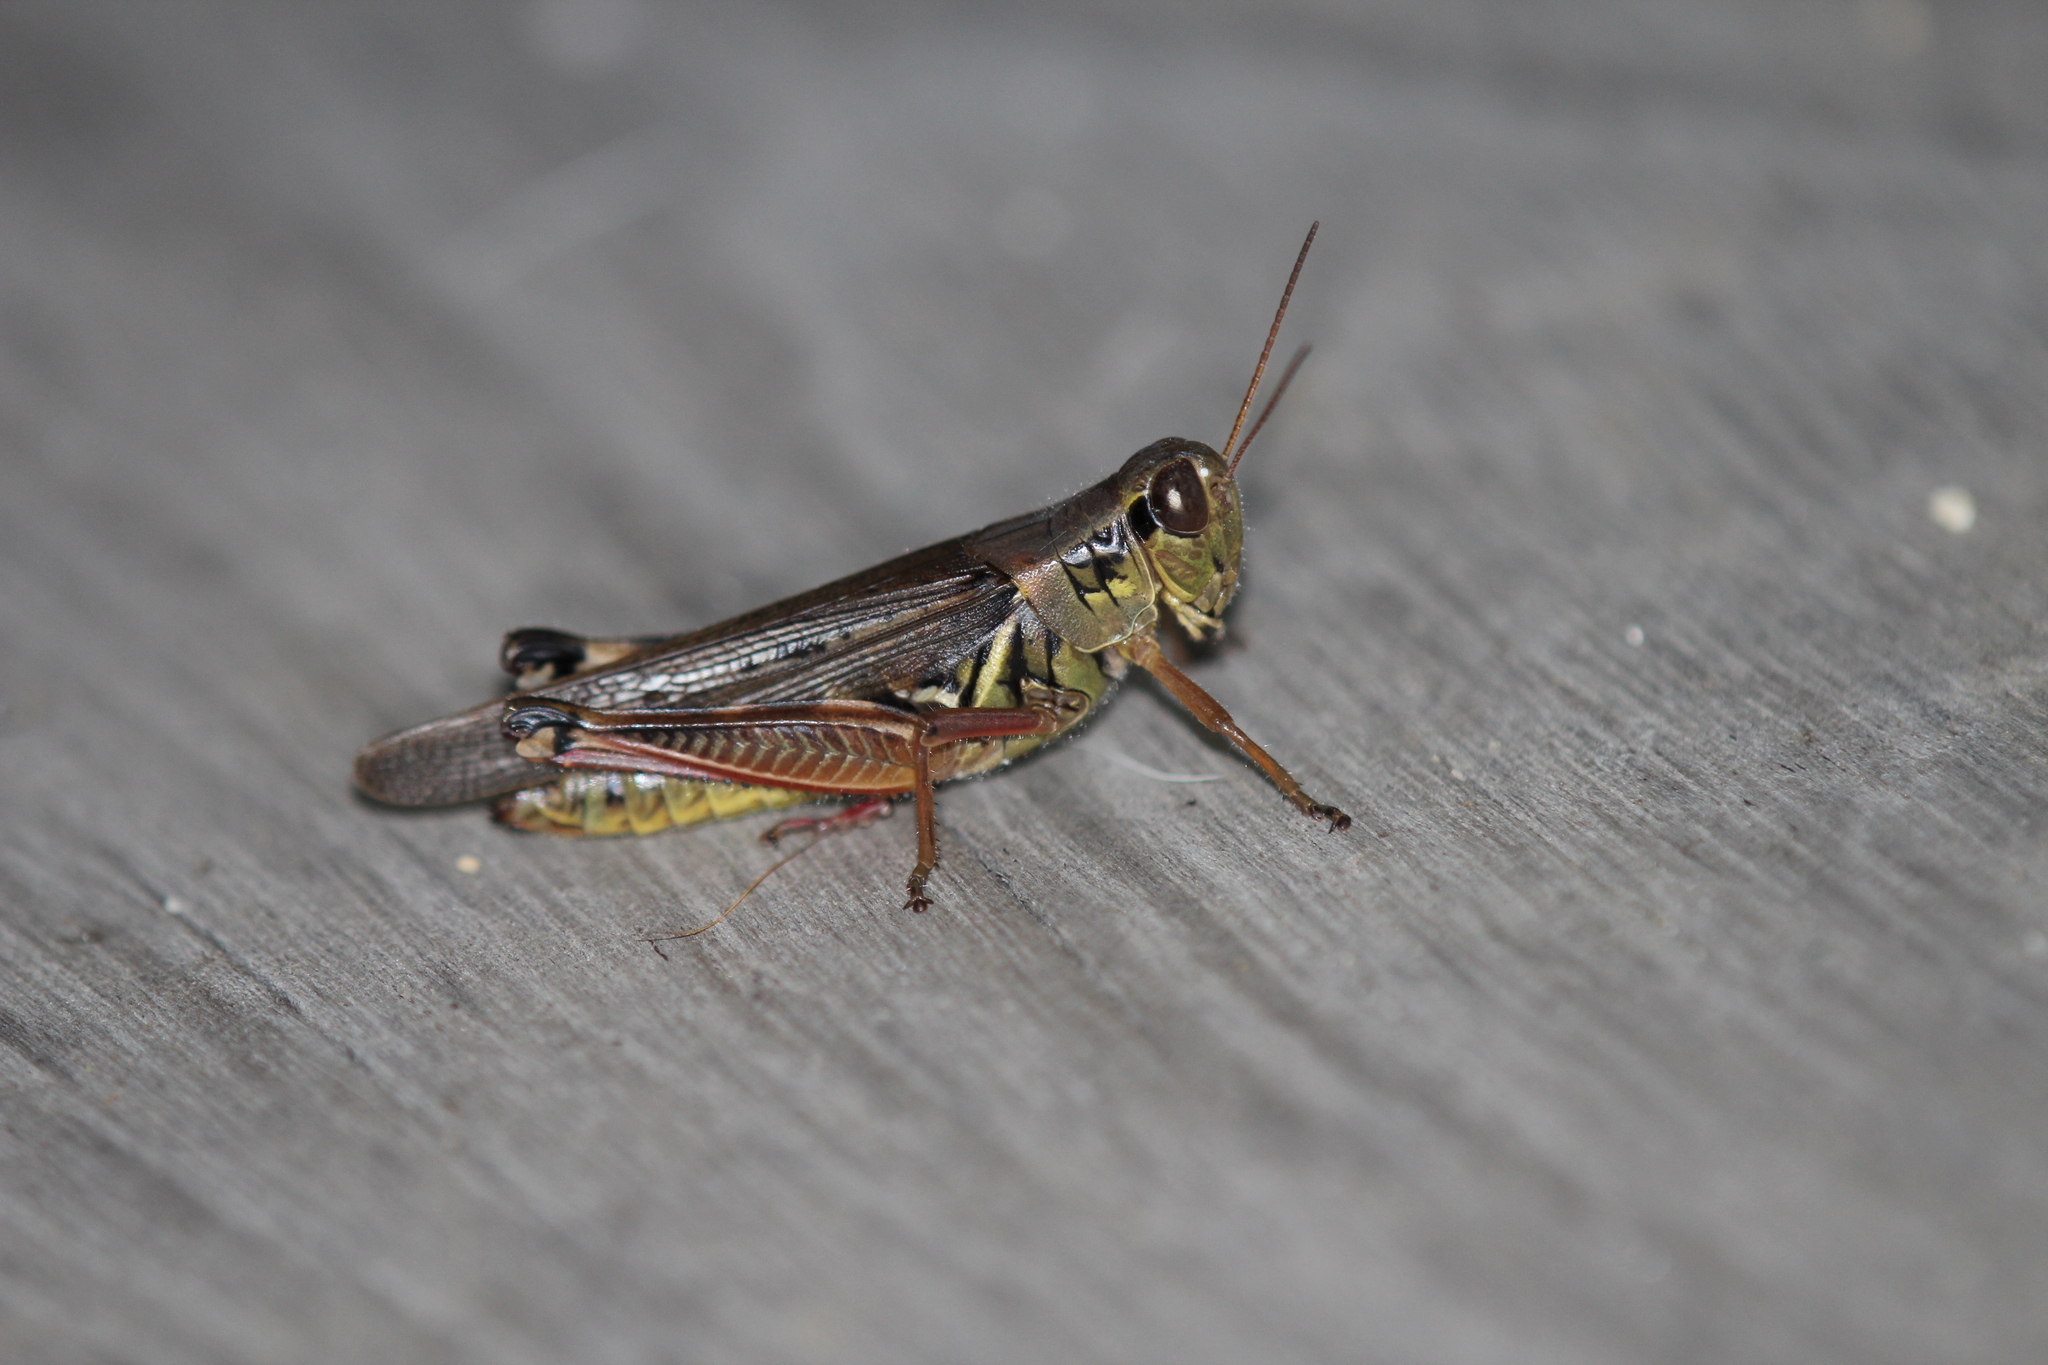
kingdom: Animalia
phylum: Arthropoda
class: Insecta
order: Orthoptera
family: Acrididae
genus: Melanoplus
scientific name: Melanoplus femurrubrum
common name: Red-legged grasshopper
